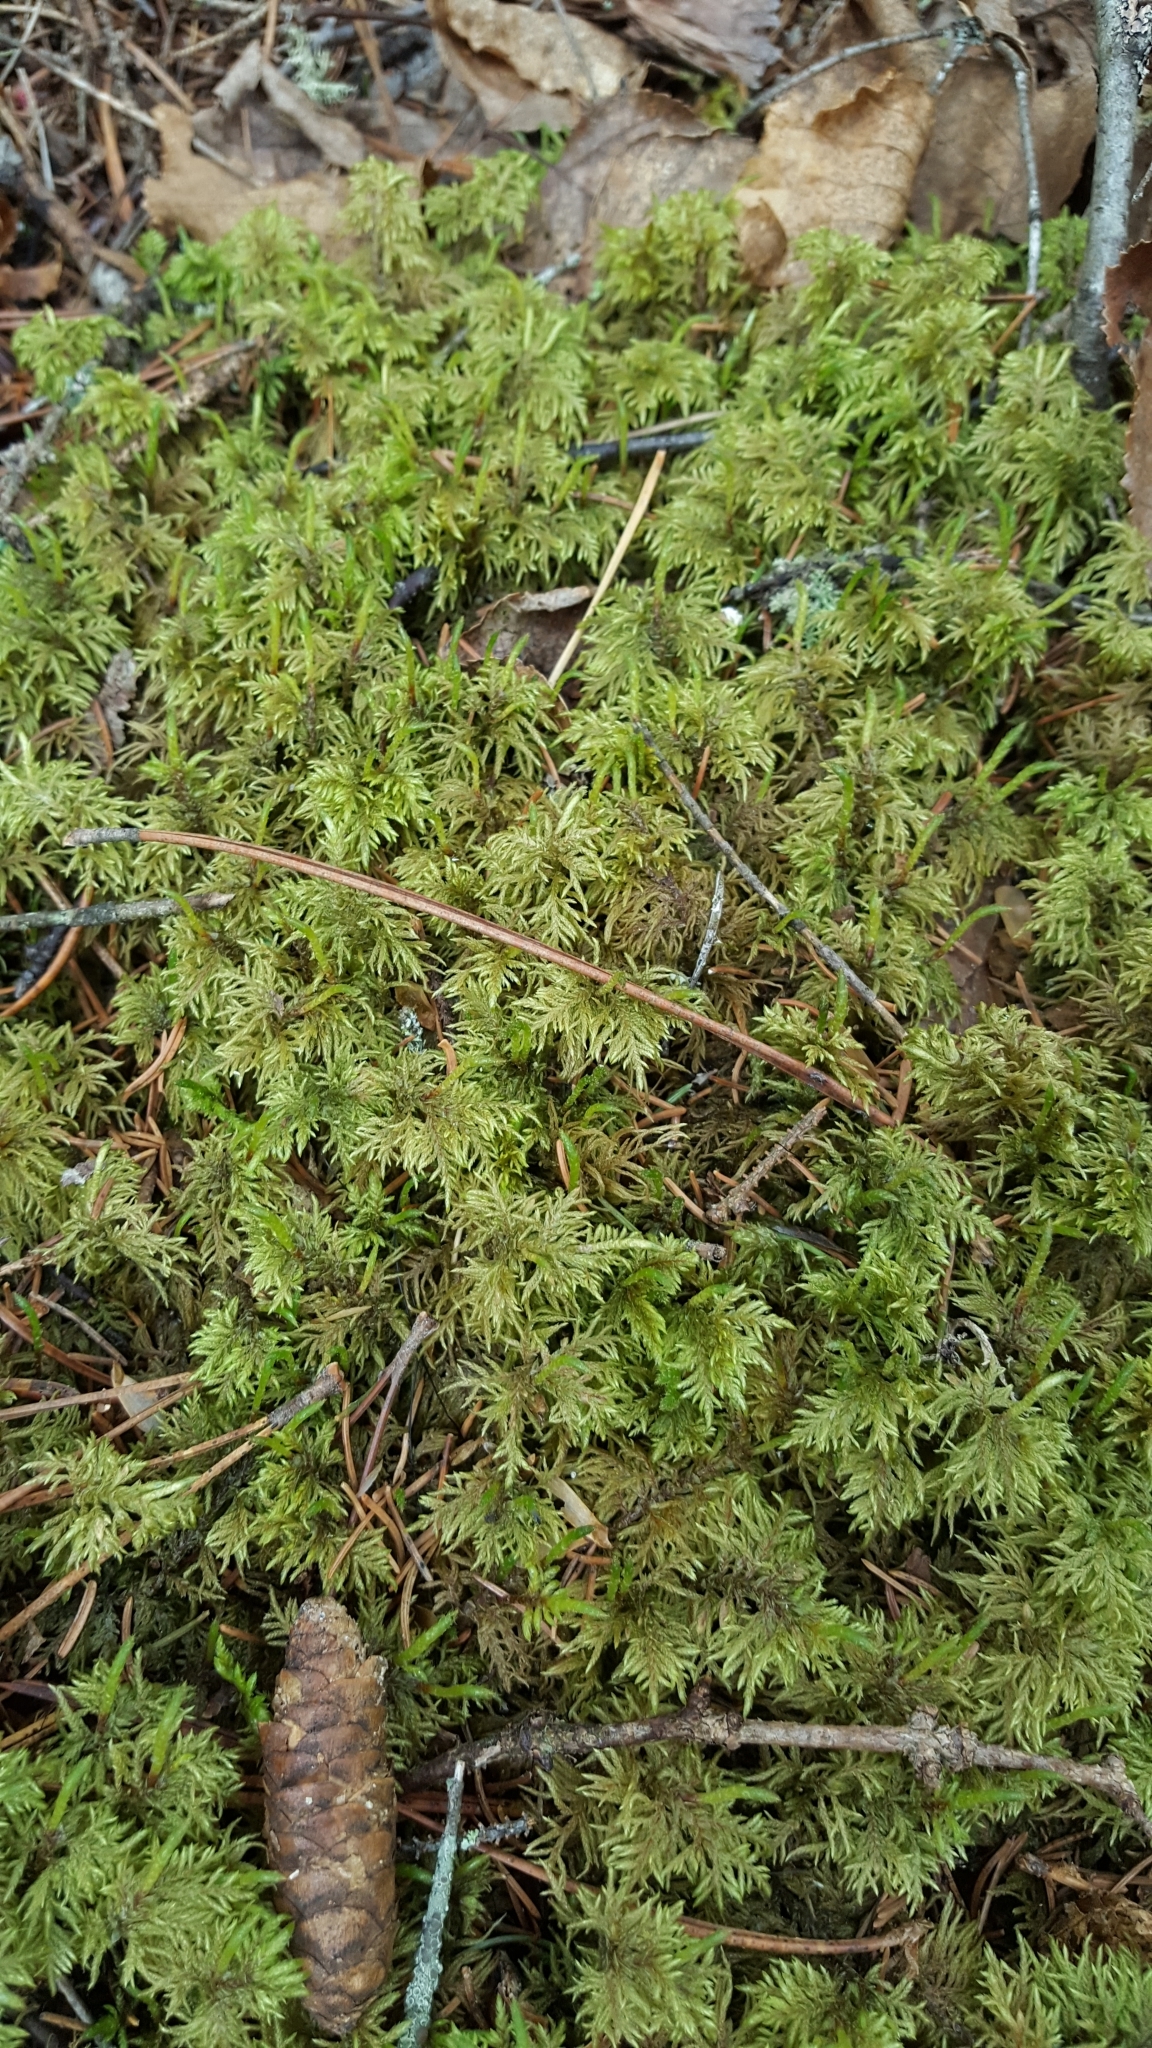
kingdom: Plantae
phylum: Bryophyta
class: Bryopsida
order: Hypnales
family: Hylocomiaceae
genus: Hylocomium
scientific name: Hylocomium splendens
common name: Stairstep moss
